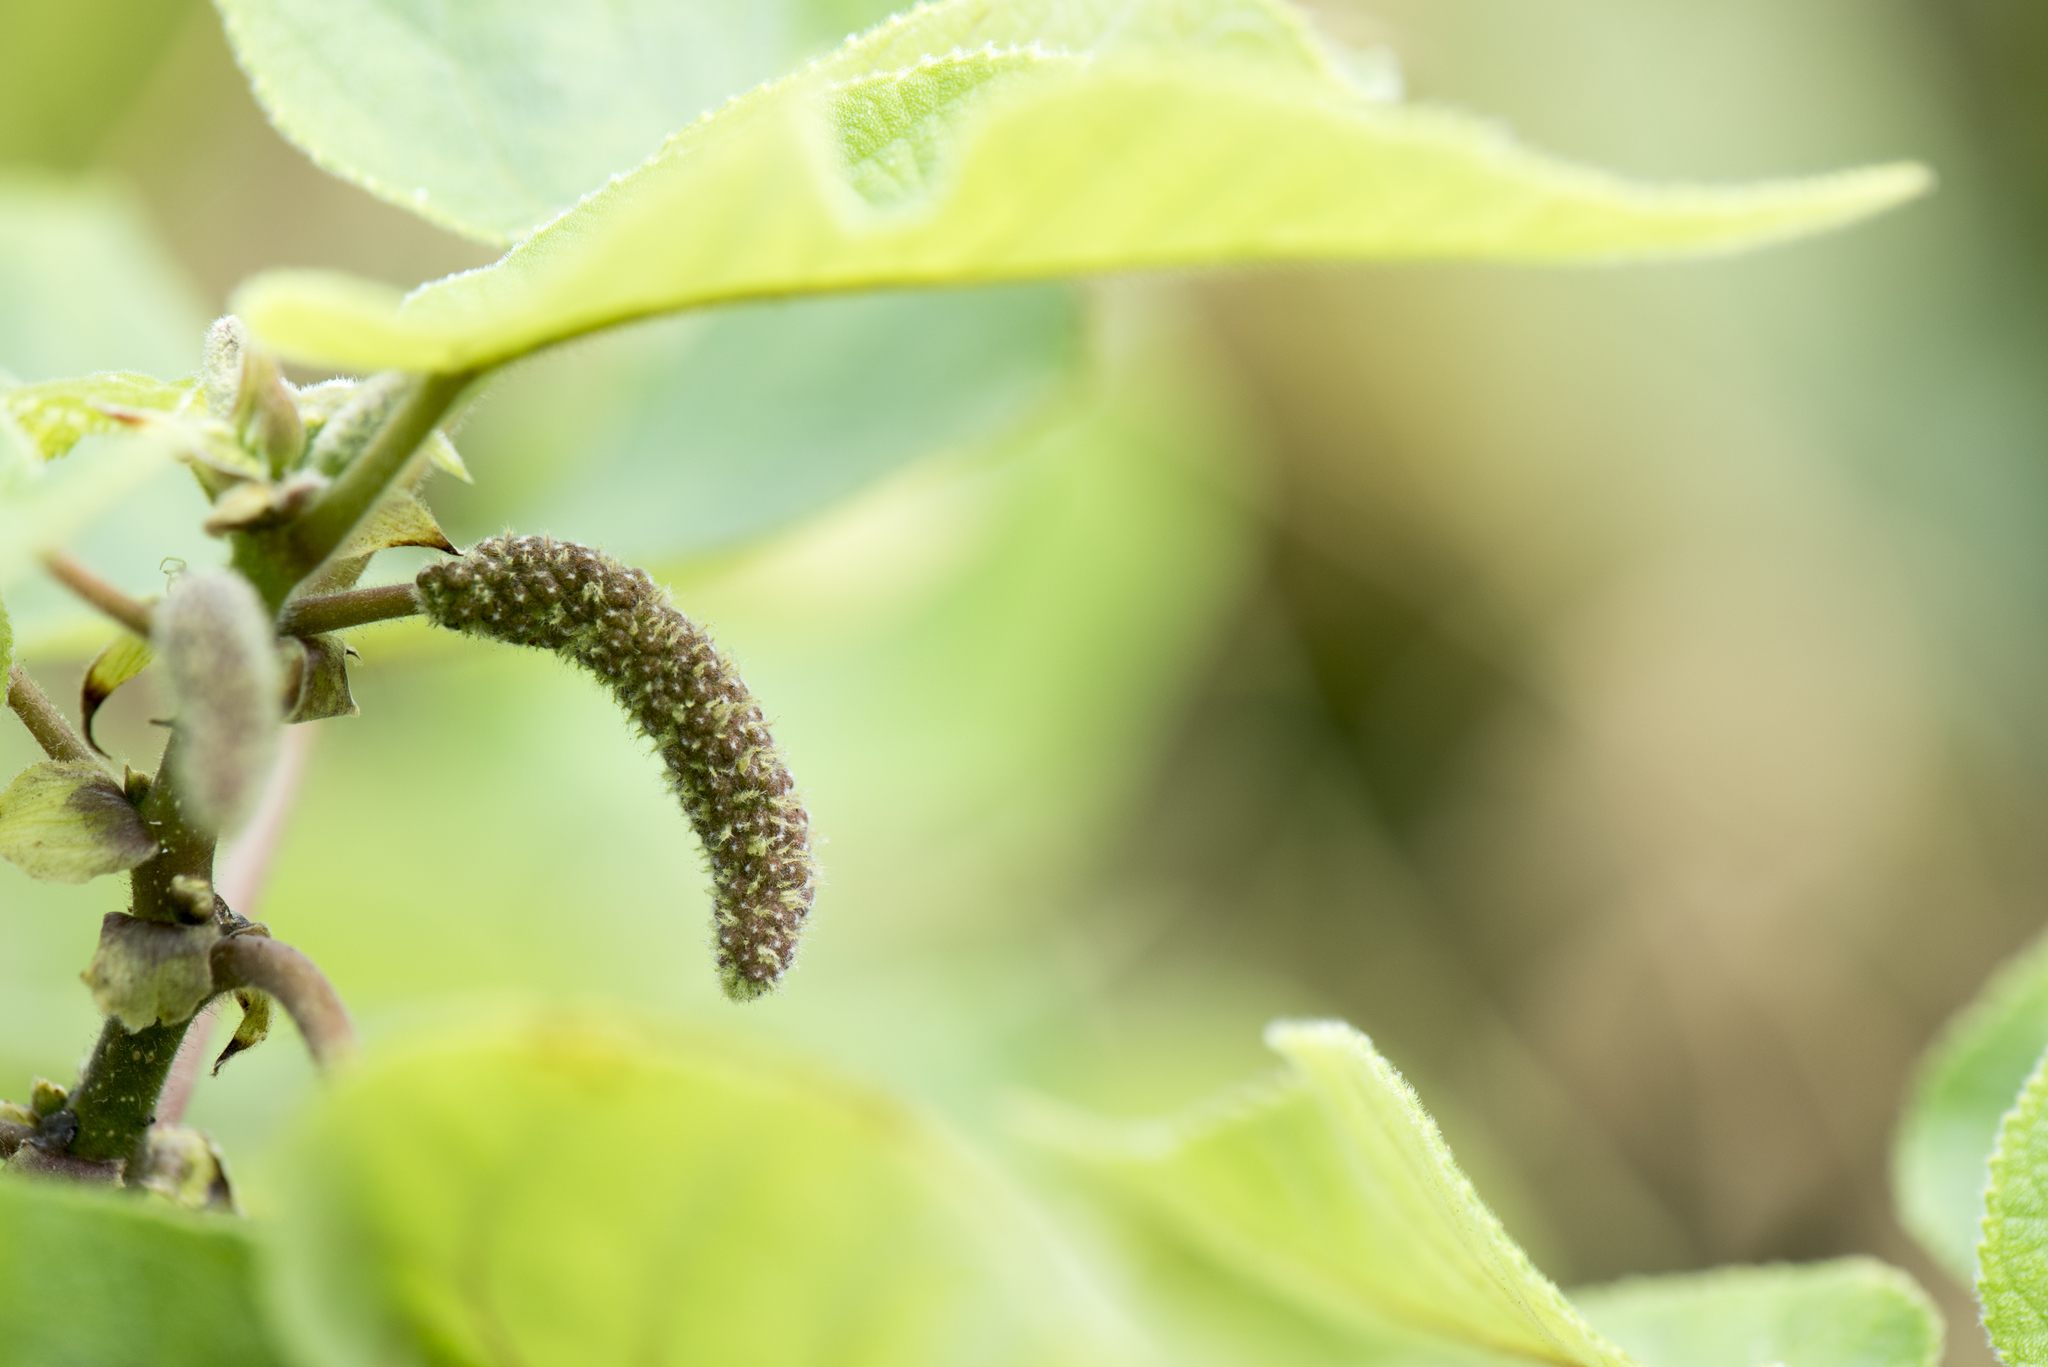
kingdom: Plantae
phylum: Tracheophyta
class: Magnoliopsida
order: Rosales
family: Moraceae
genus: Broussonetia
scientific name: Broussonetia papyrifera
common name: Paper mulberry
